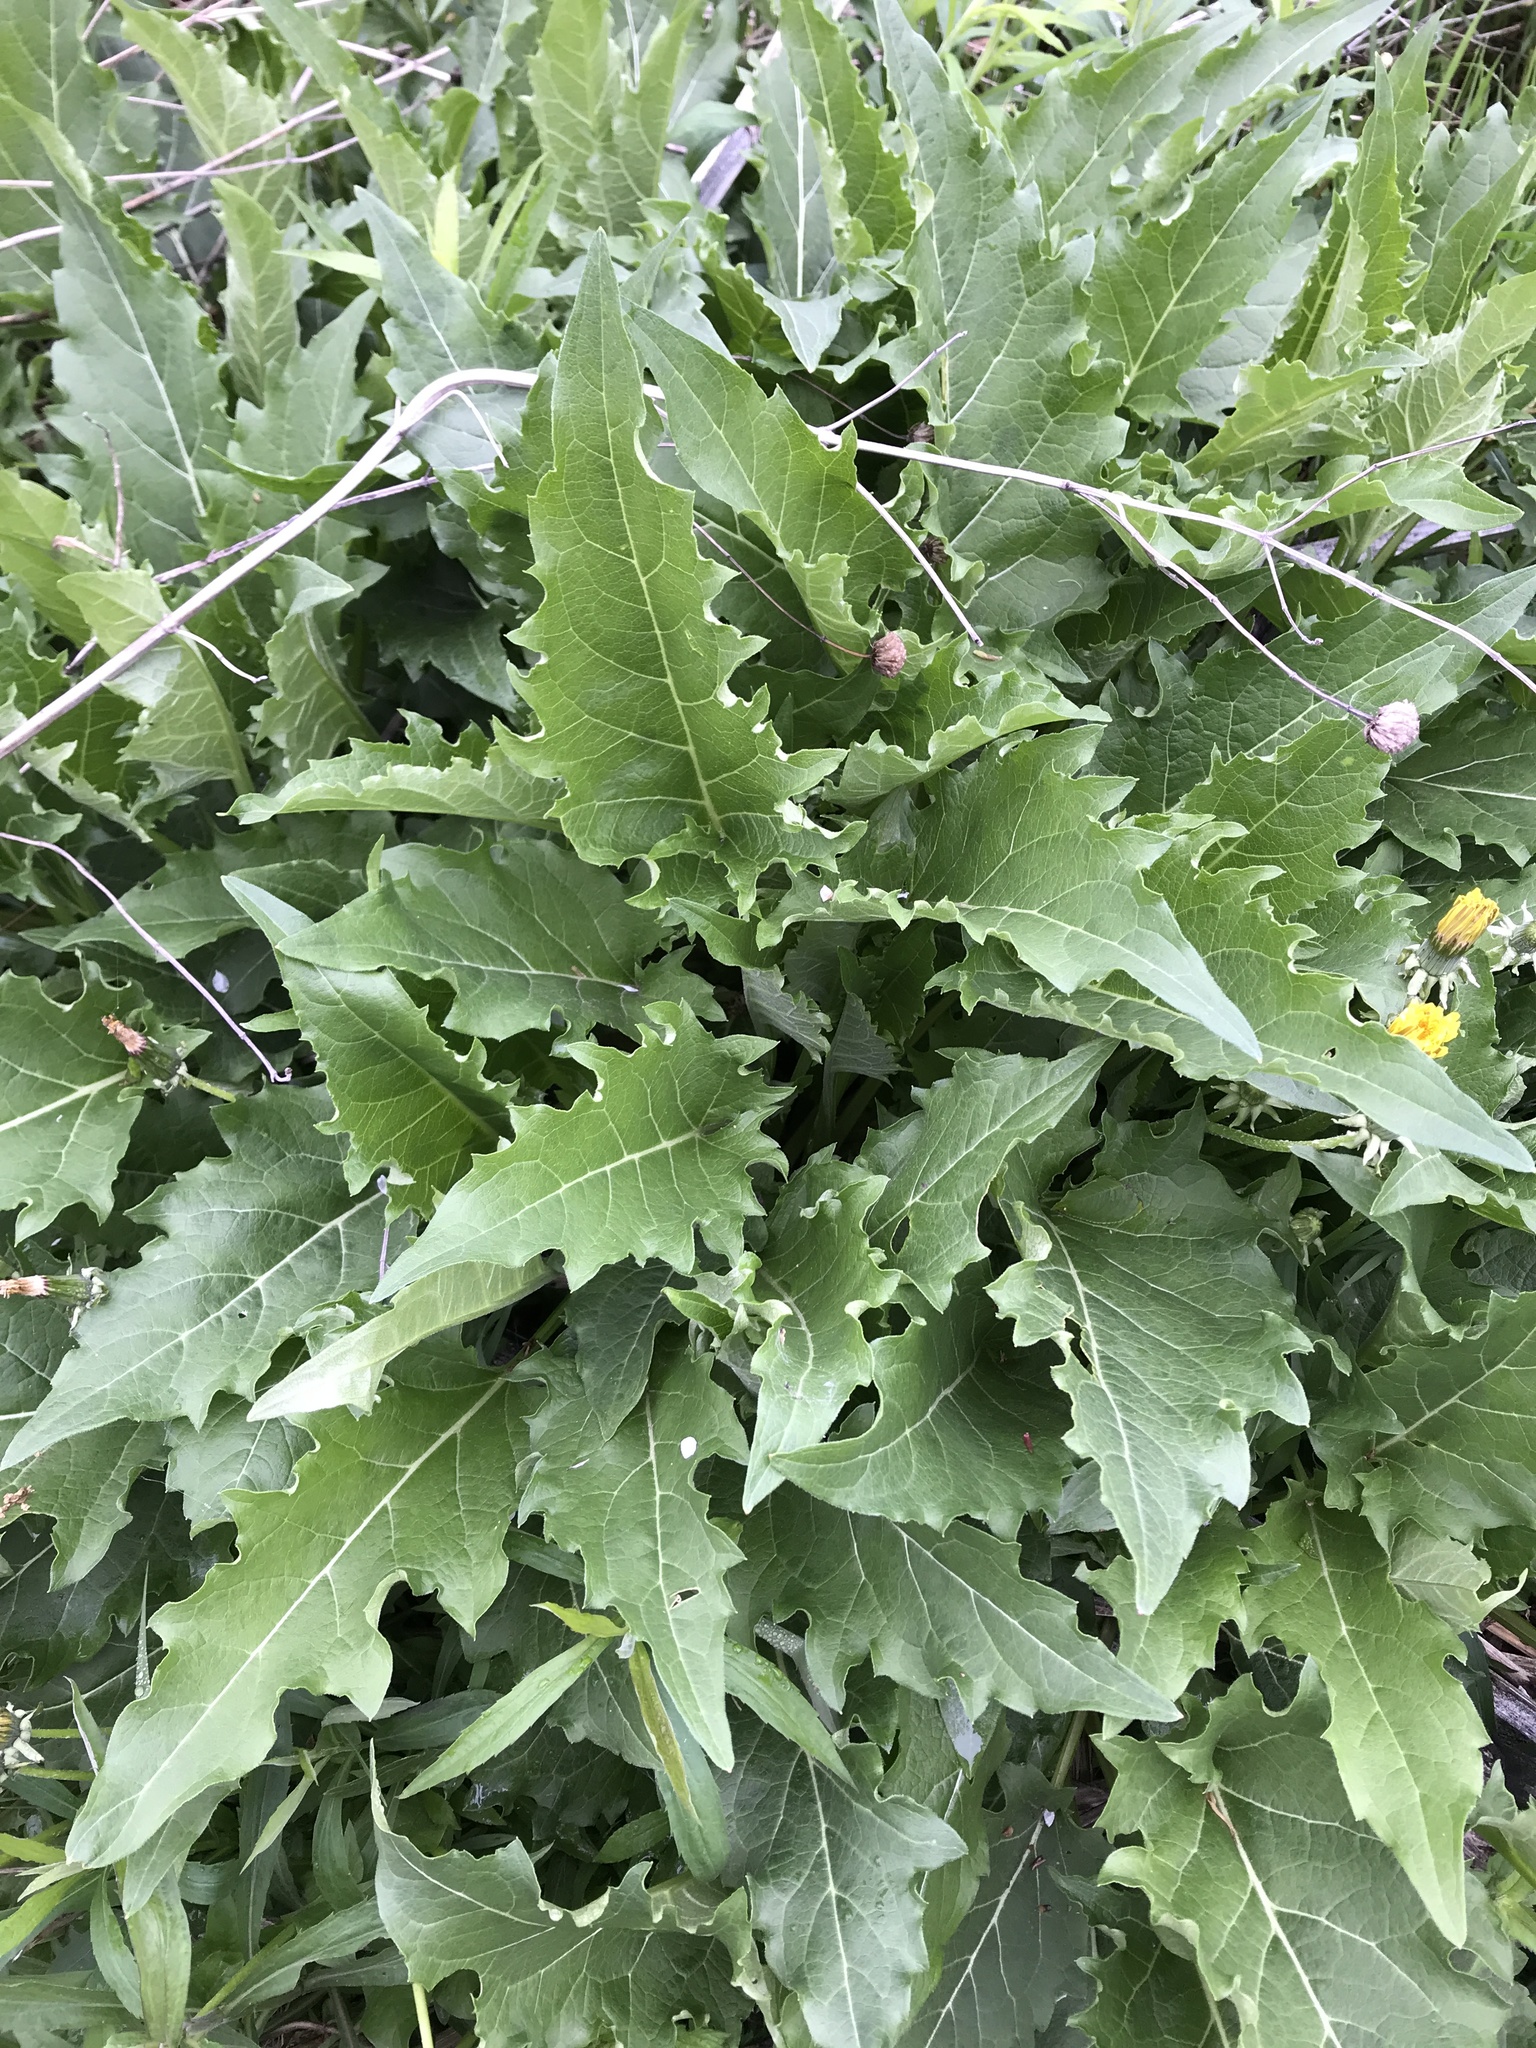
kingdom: Plantae
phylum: Tracheophyta
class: Magnoliopsida
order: Asterales
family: Asteraceae
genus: Silphium
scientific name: Silphium perfoliatum
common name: Cup-plant
